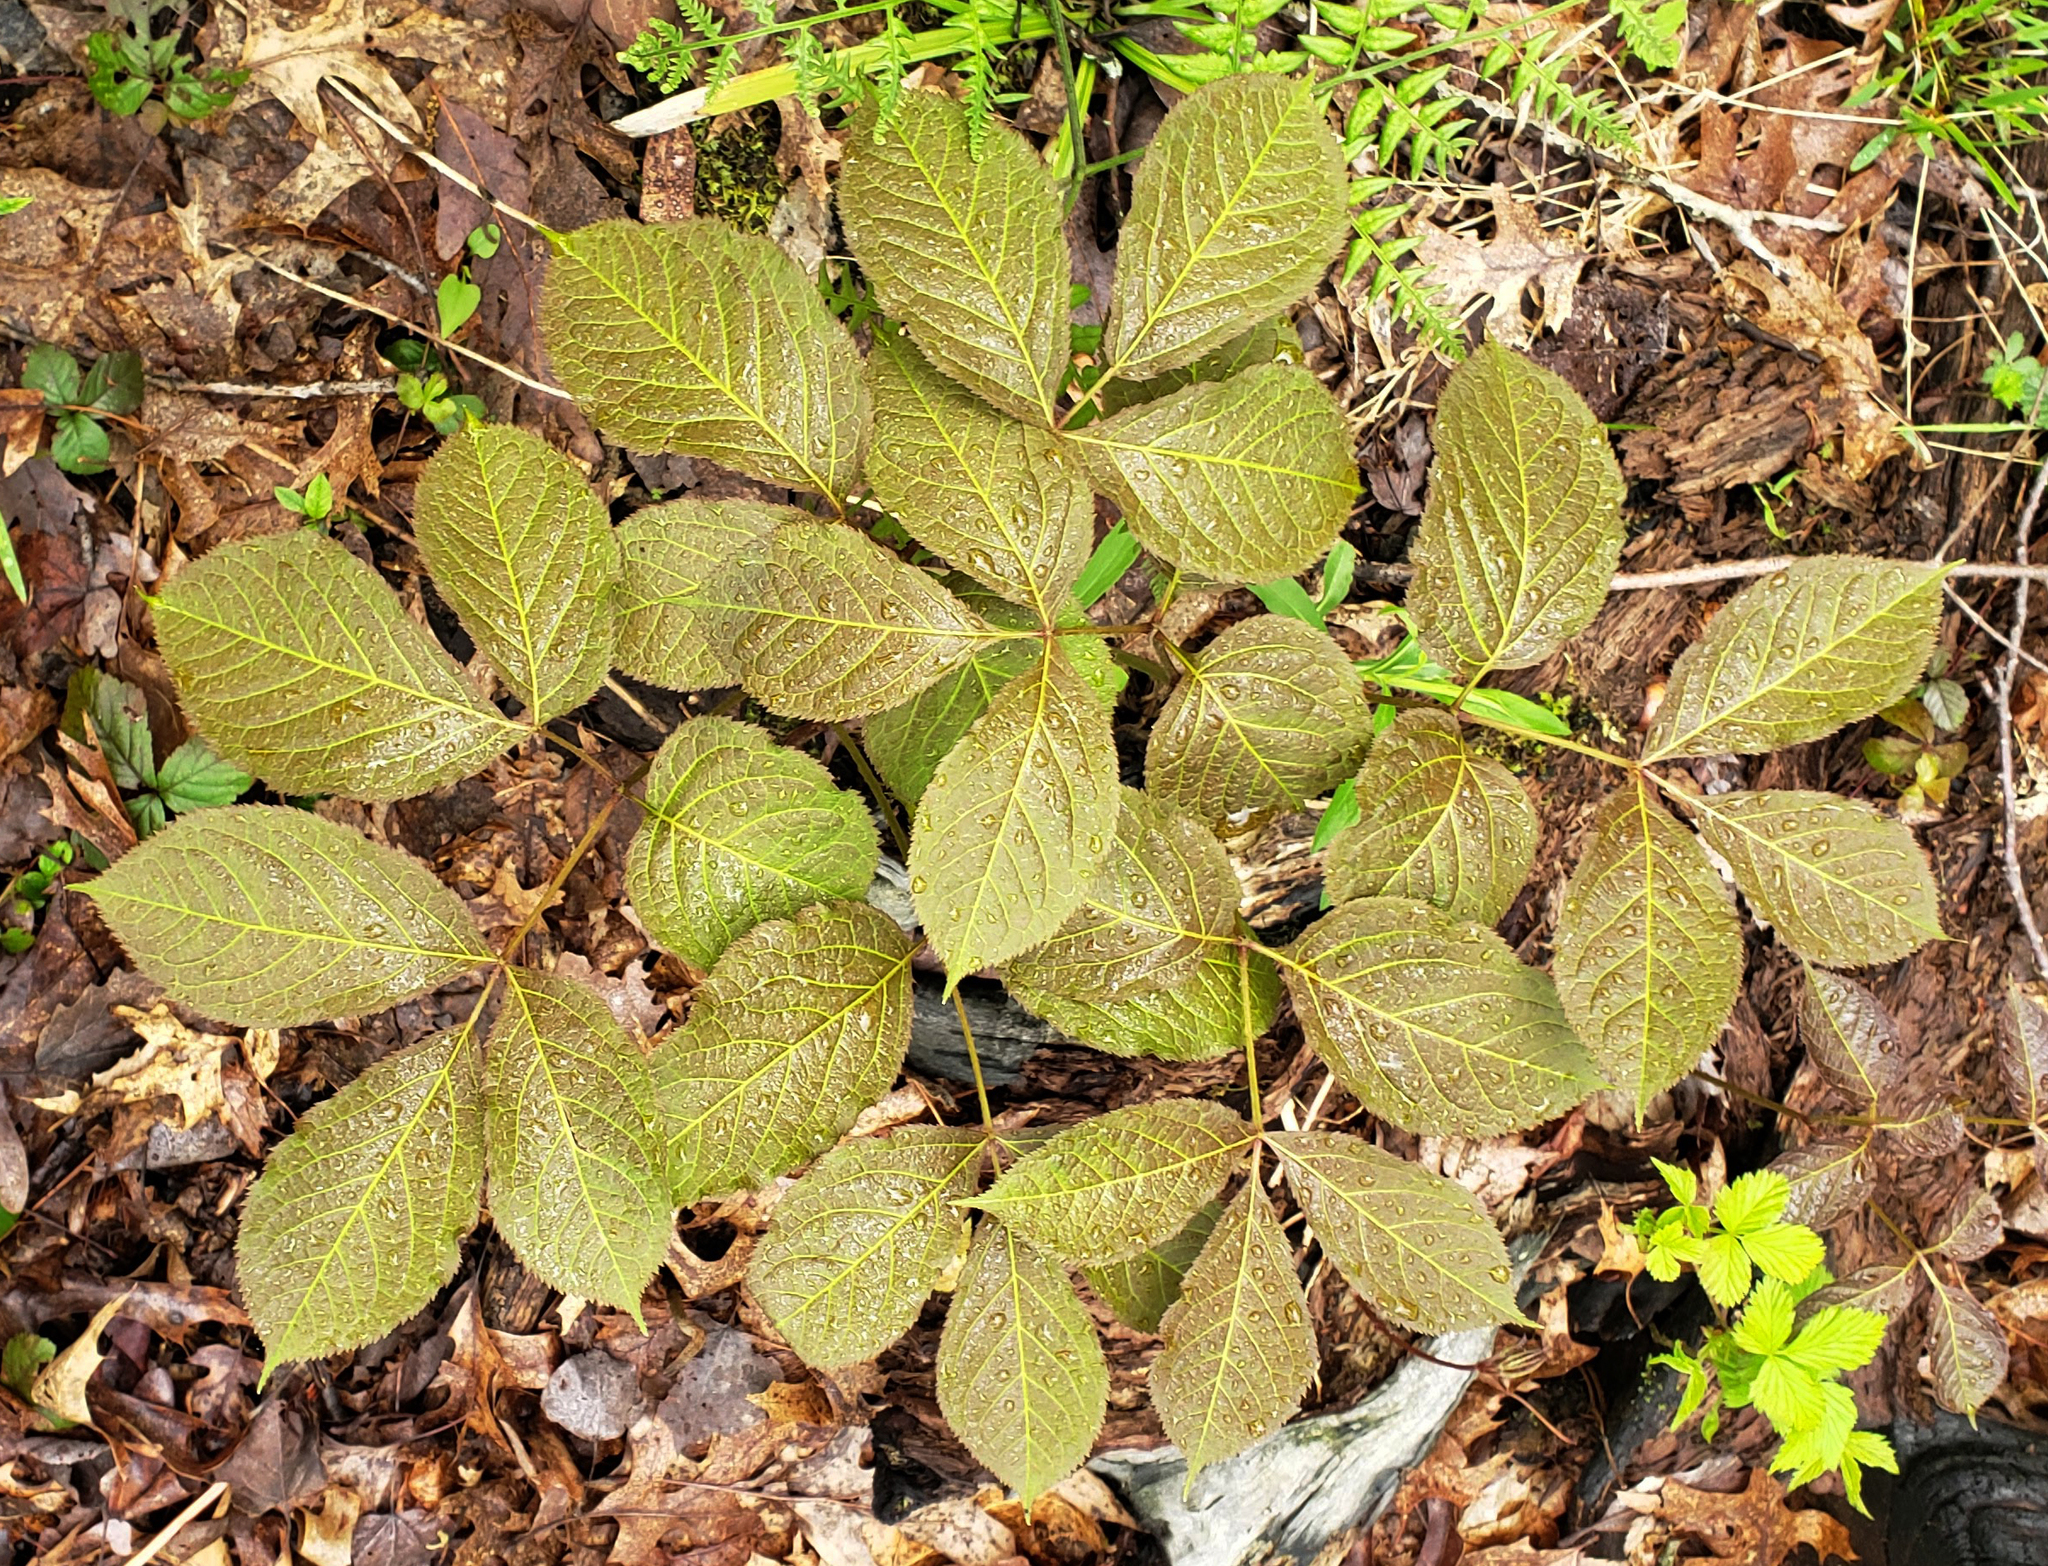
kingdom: Plantae
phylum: Tracheophyta
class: Magnoliopsida
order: Apiales
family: Araliaceae
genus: Aralia
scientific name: Aralia nudicaulis
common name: Wild sarsaparilla
